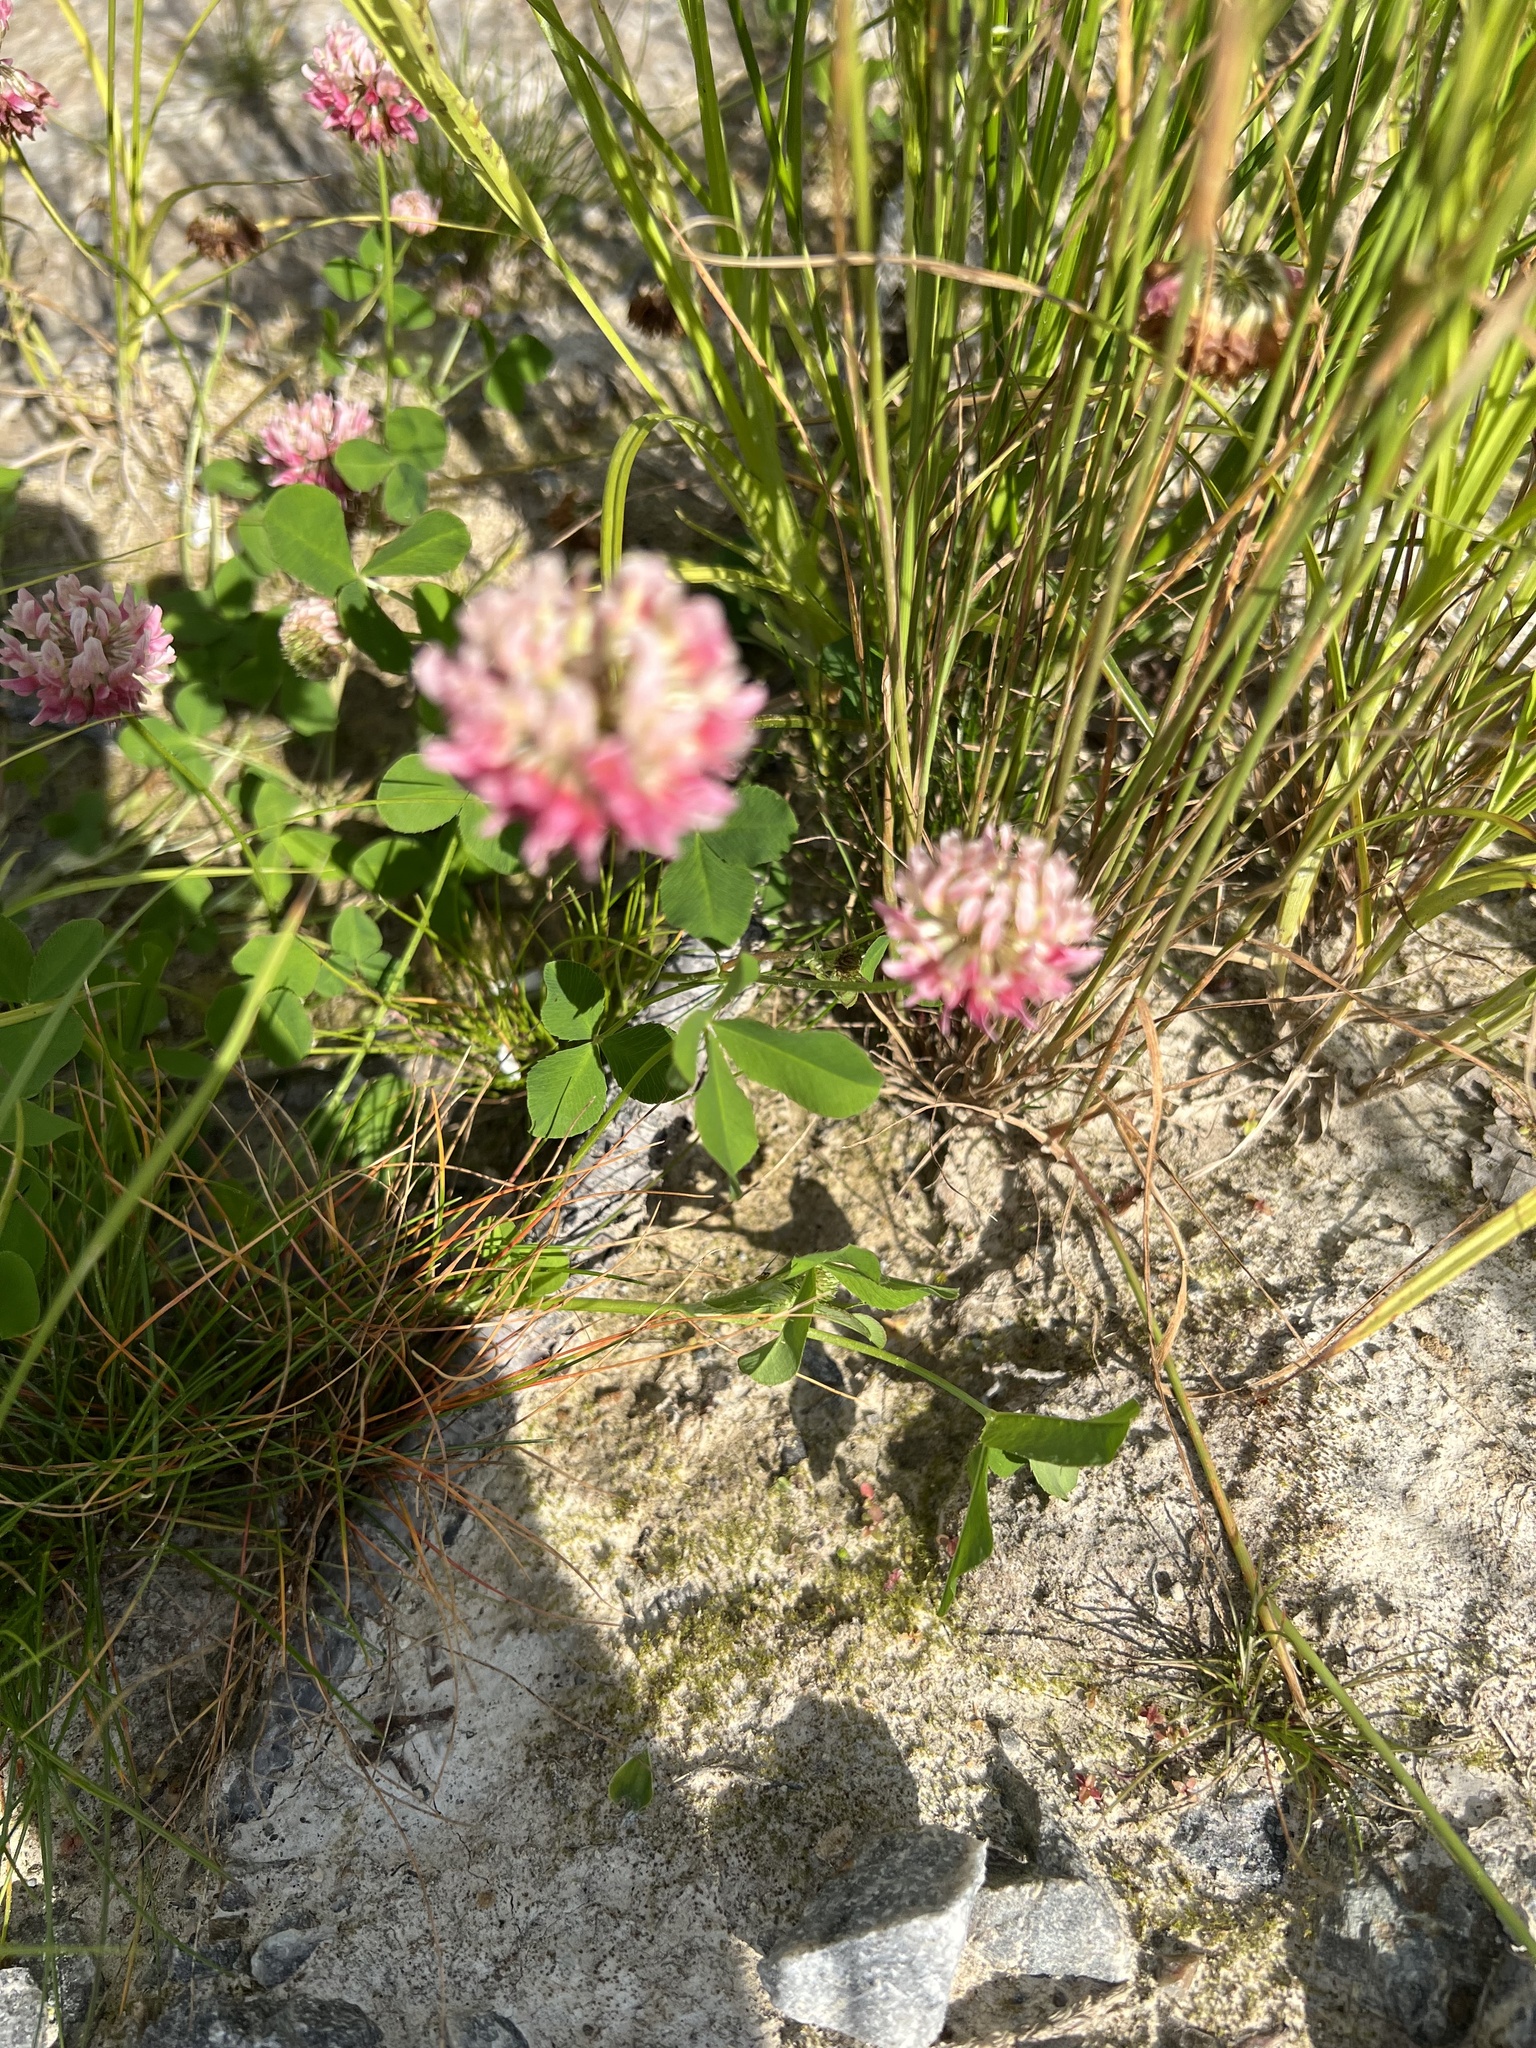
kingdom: Plantae
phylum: Tracheophyta
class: Magnoliopsida
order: Fabales
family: Fabaceae
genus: Trifolium
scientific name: Trifolium hybridum
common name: Alsike clover
